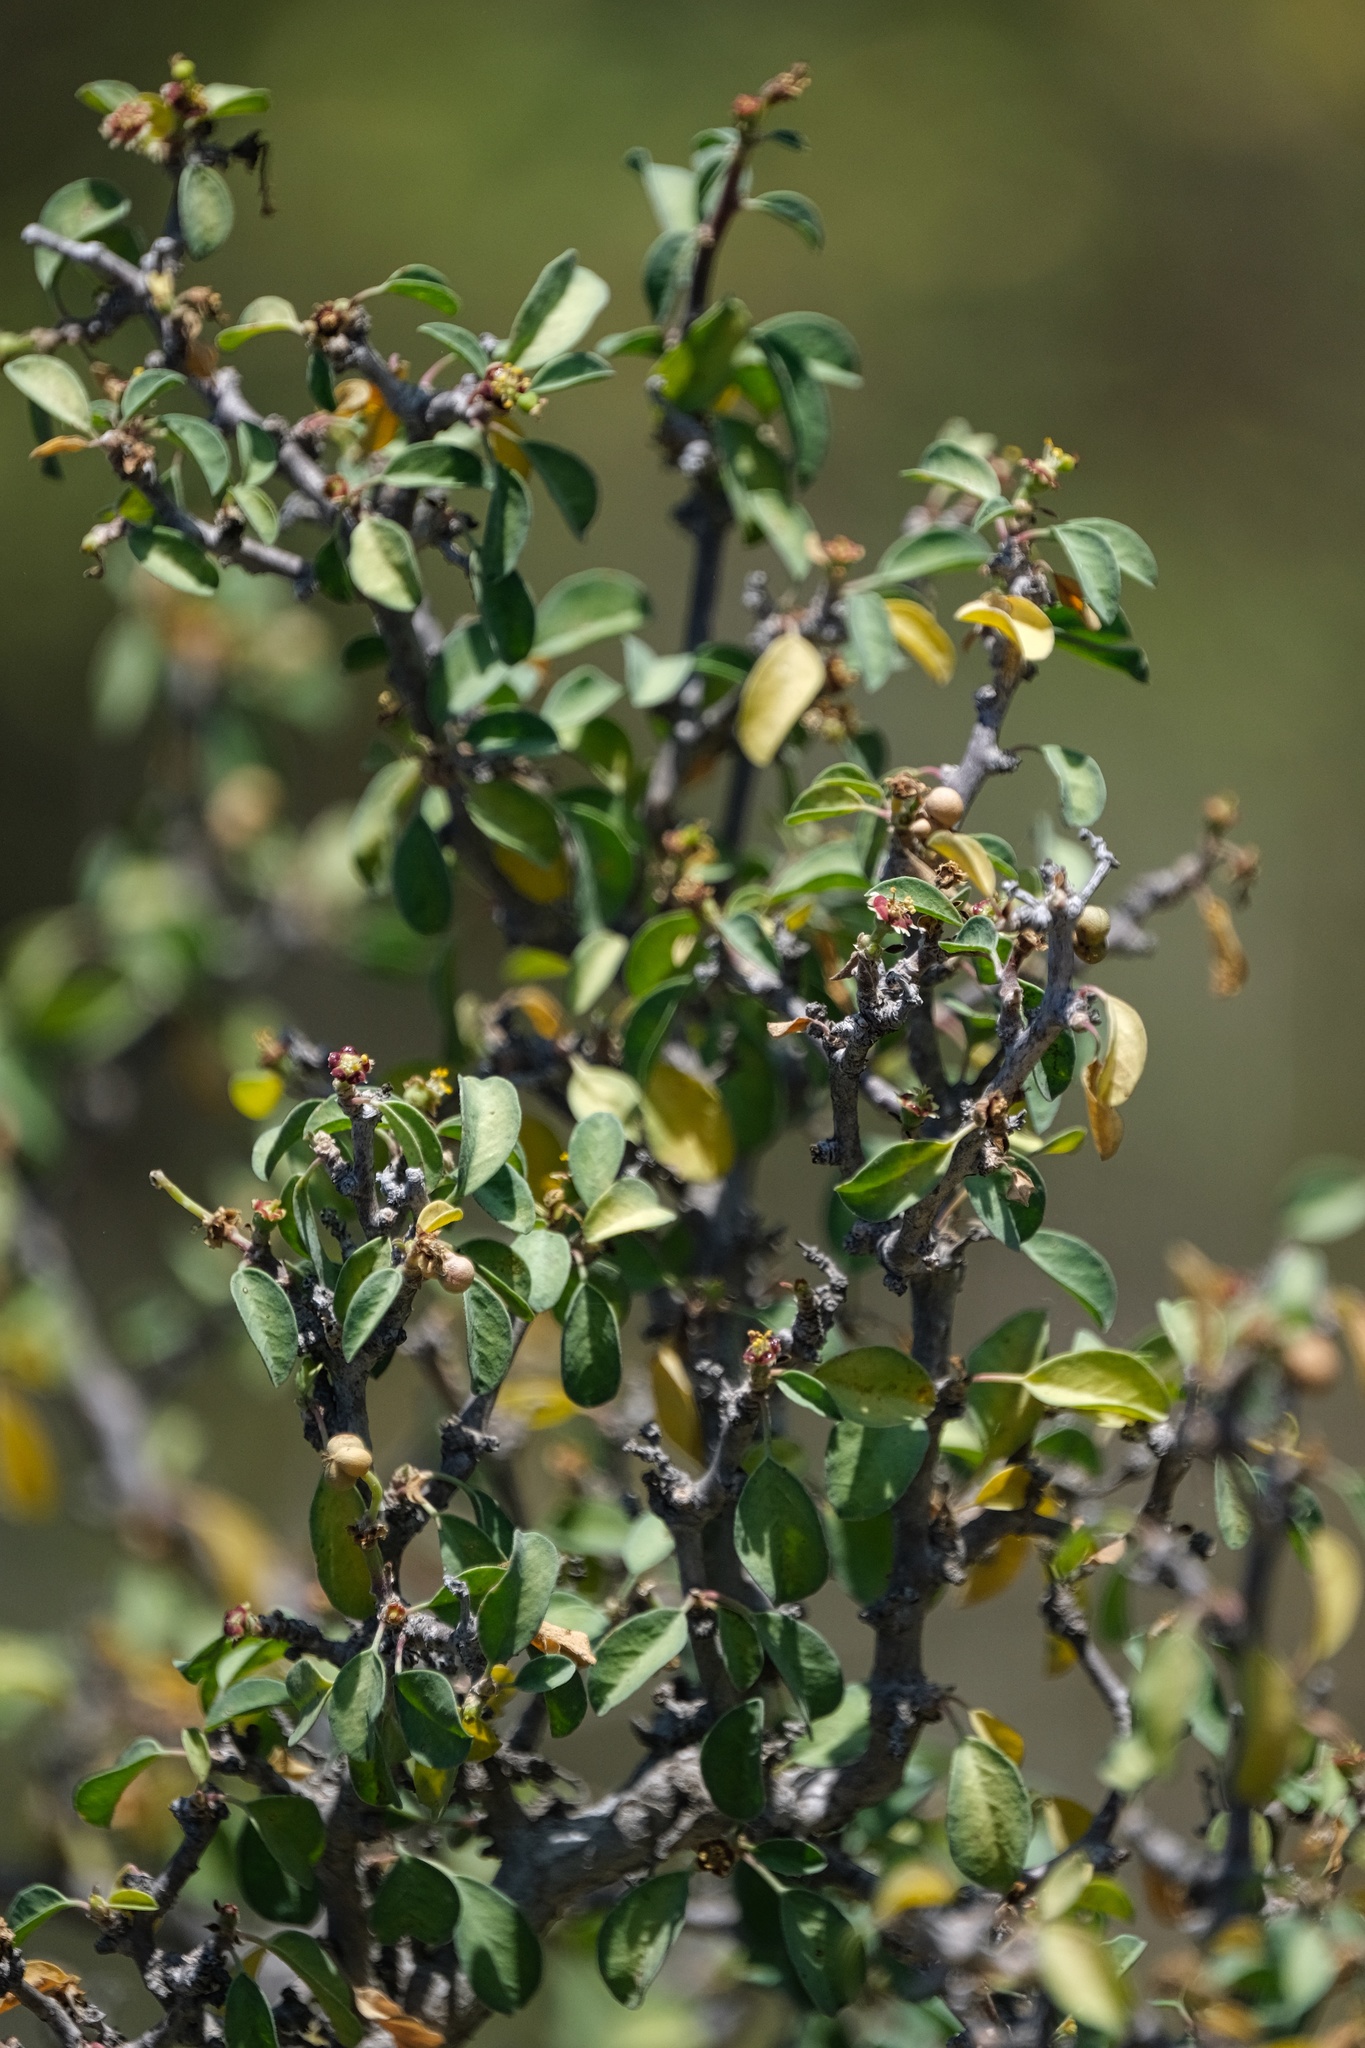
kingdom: Plantae
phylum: Tracheophyta
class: Magnoliopsida
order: Malpighiales
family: Euphorbiaceae
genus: Euphorbia
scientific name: Euphorbia misera
